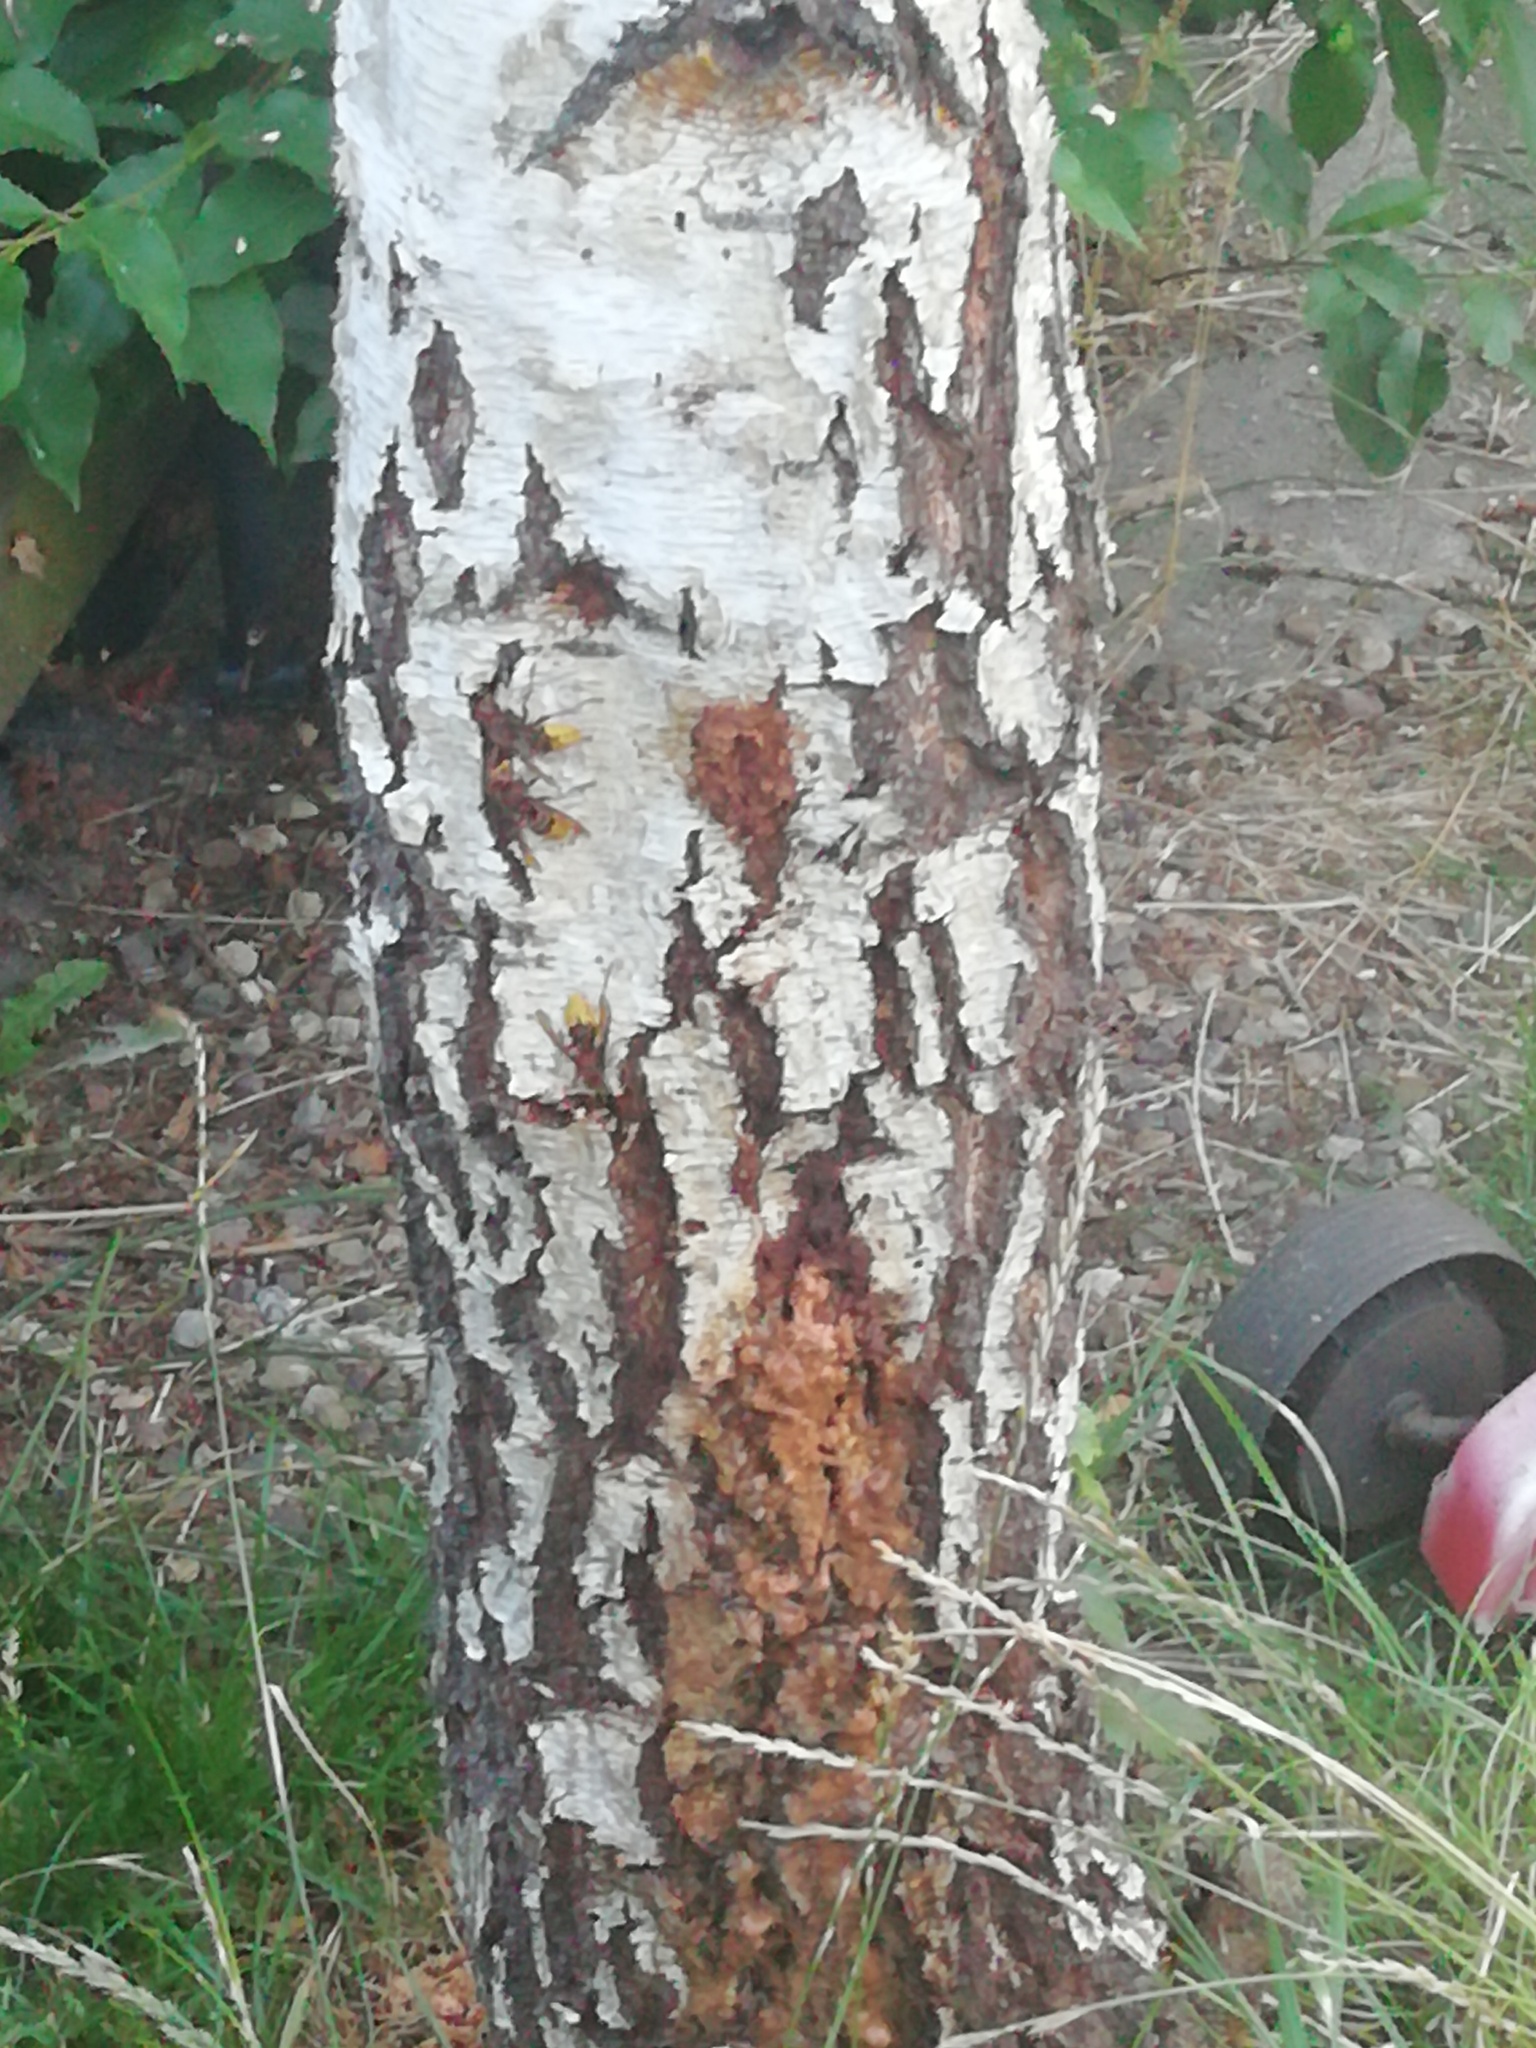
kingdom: Animalia
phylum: Arthropoda
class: Insecta
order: Hymenoptera
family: Vespidae
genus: Vespa
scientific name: Vespa crabro
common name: Hornet
